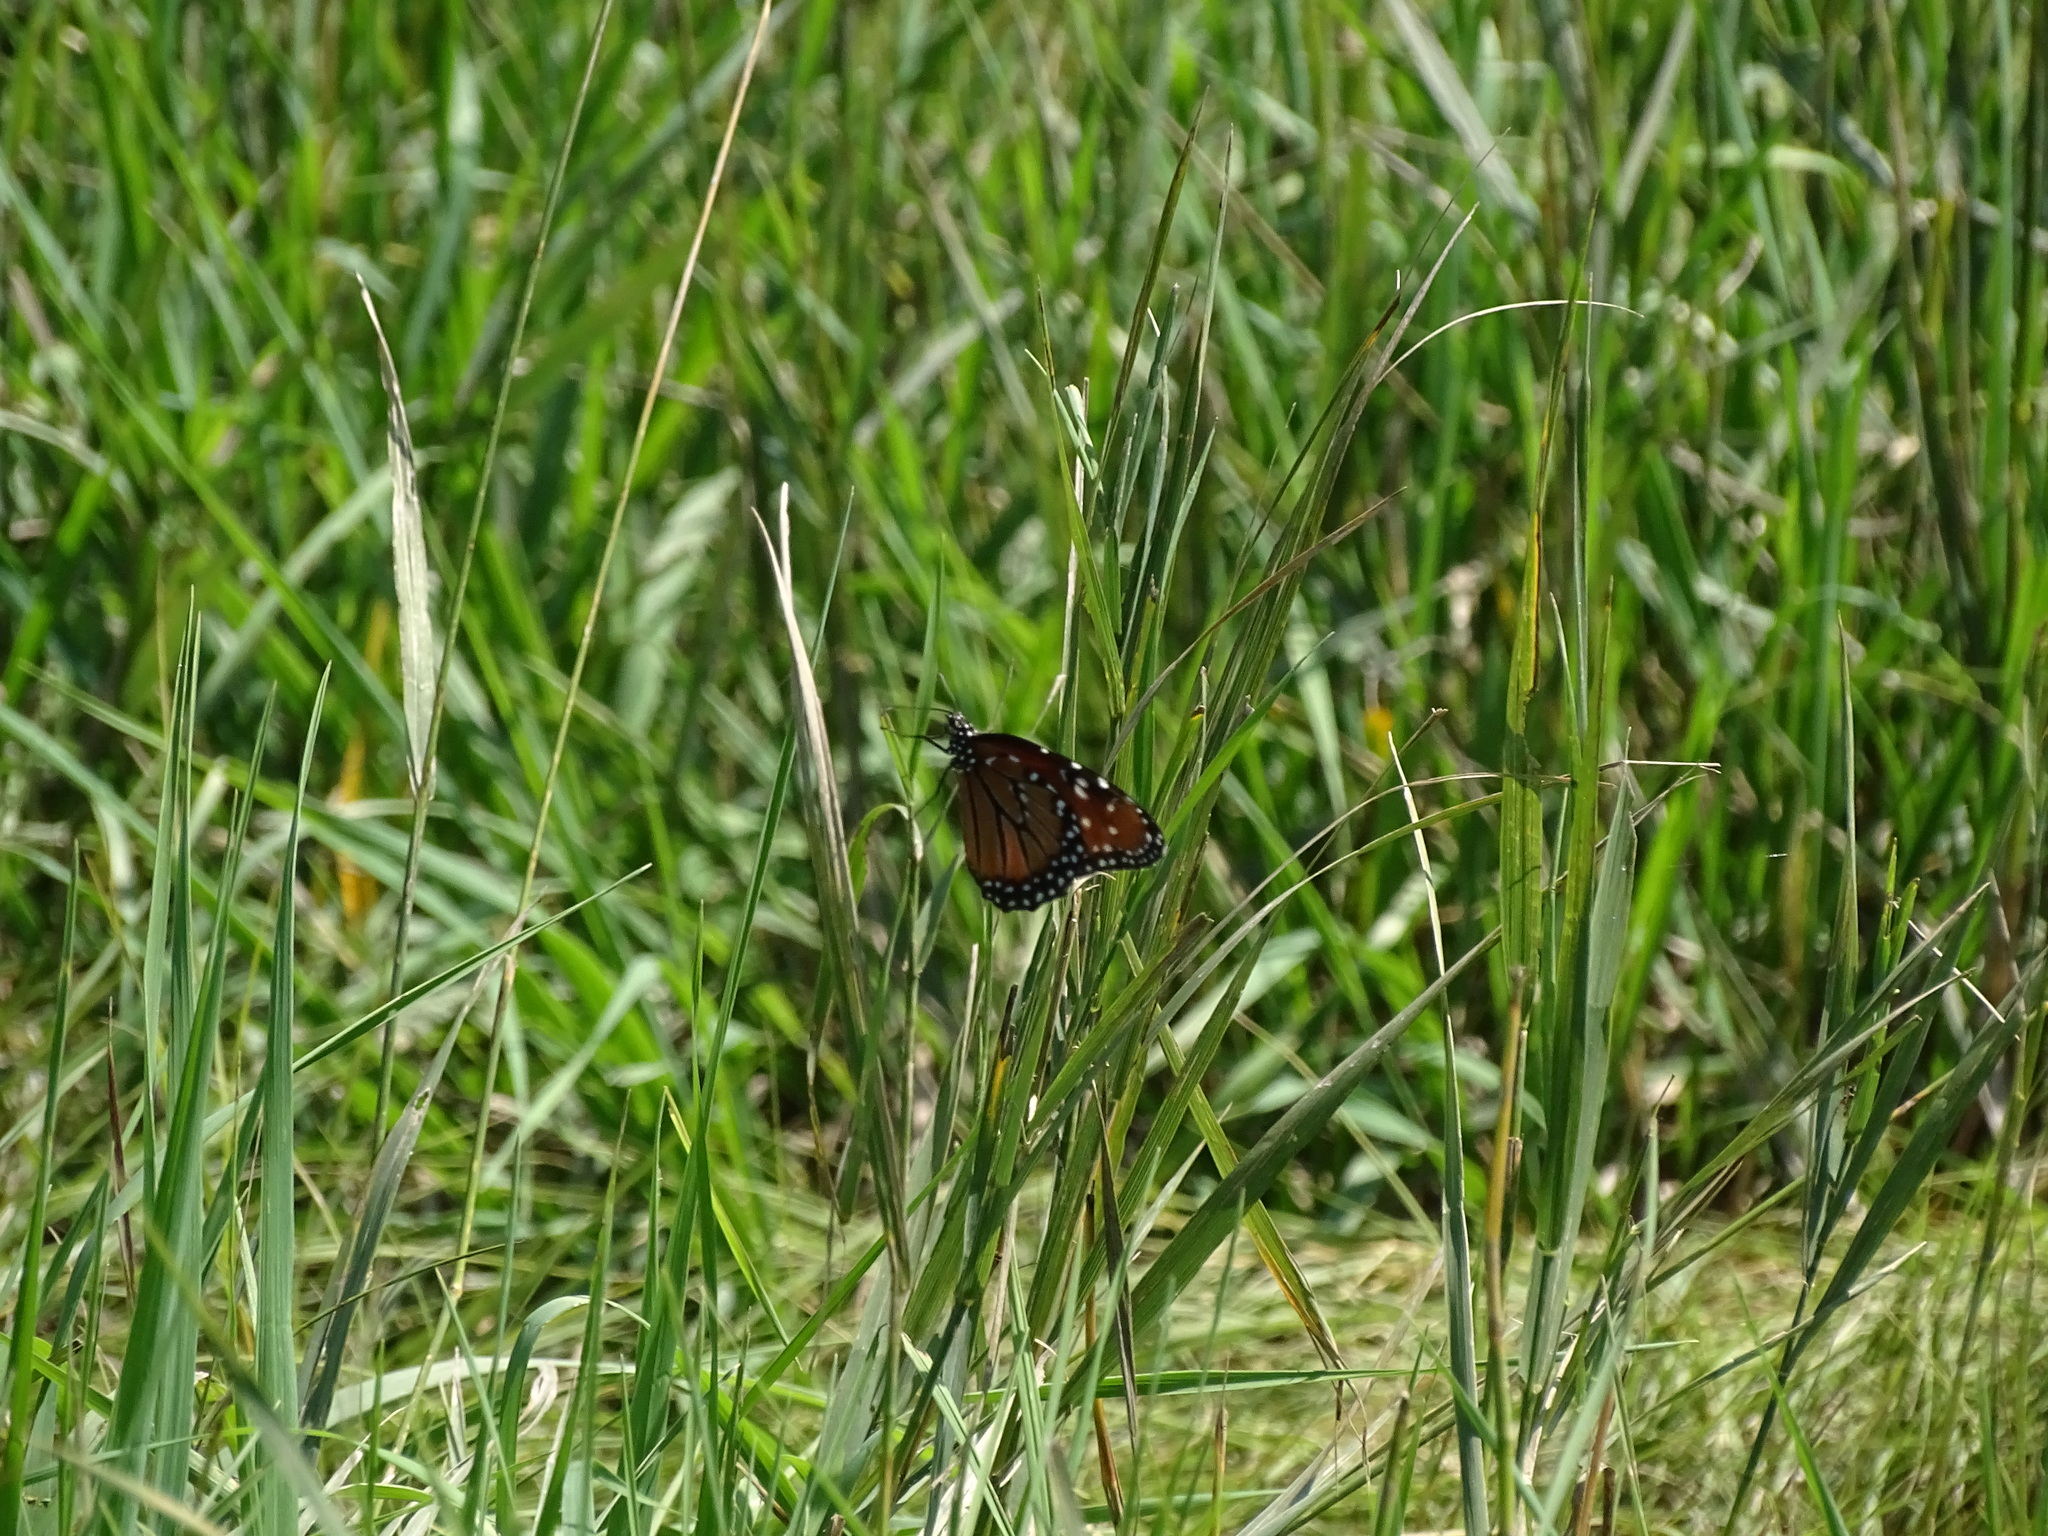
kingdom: Animalia
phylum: Arthropoda
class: Insecta
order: Lepidoptera
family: Nymphalidae
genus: Danaus
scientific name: Danaus gilippus
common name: Queen
